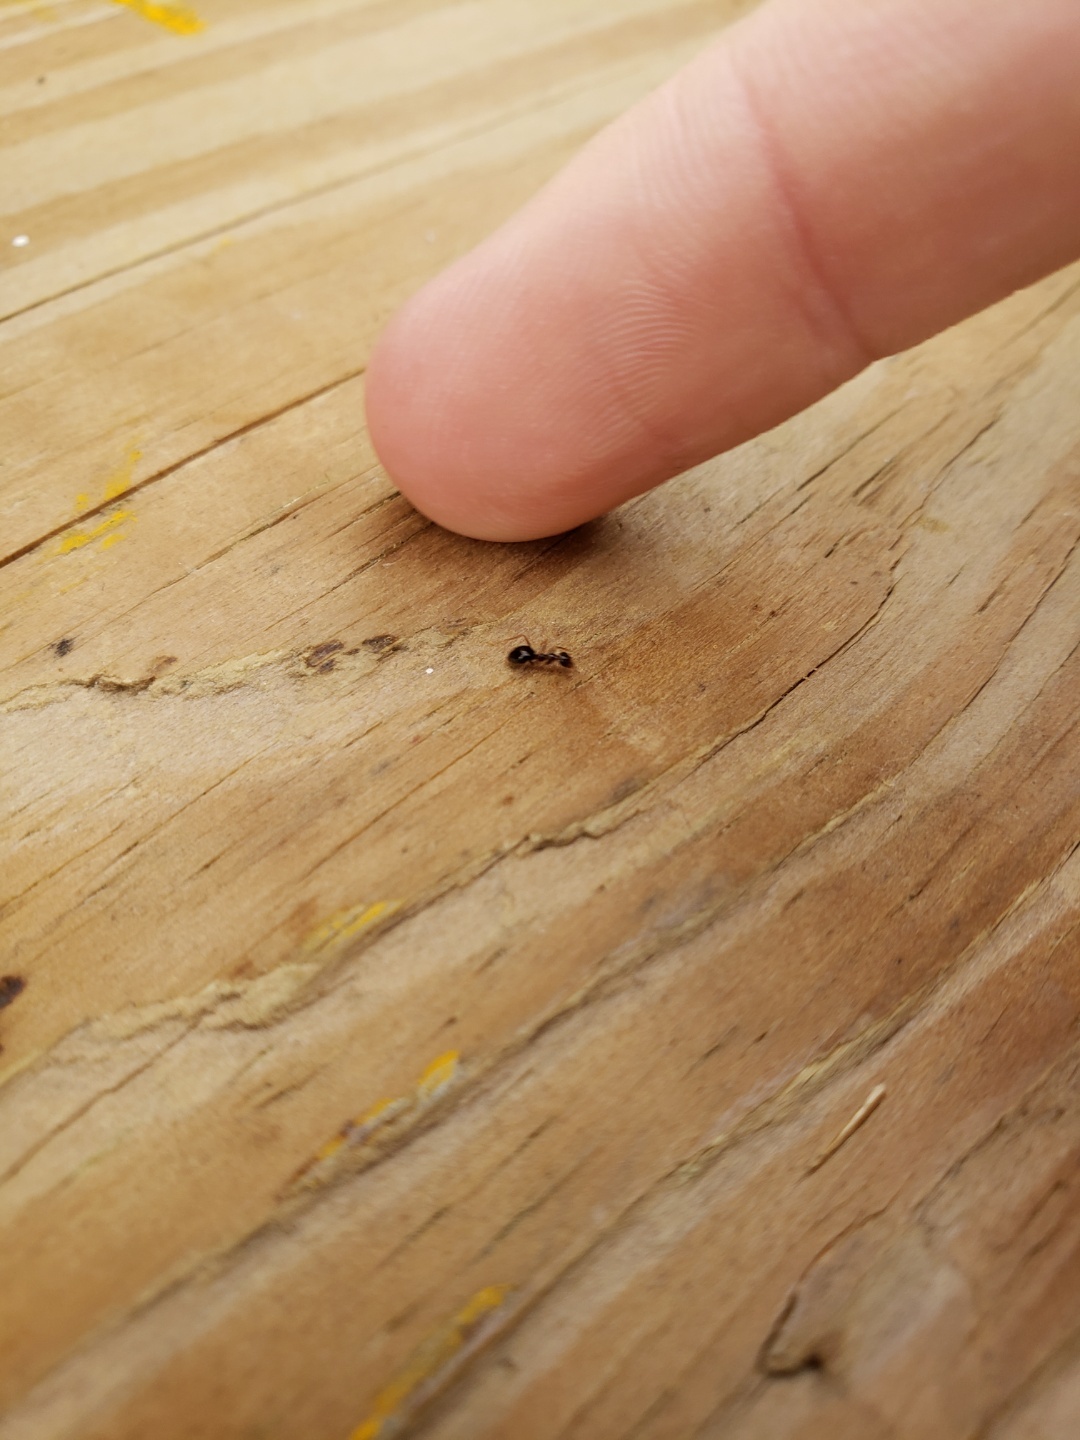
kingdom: Animalia
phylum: Arthropoda
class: Insecta
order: Hymenoptera
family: Formicidae
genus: Prenolepis
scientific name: Prenolepis imparis
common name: Small honey ant
